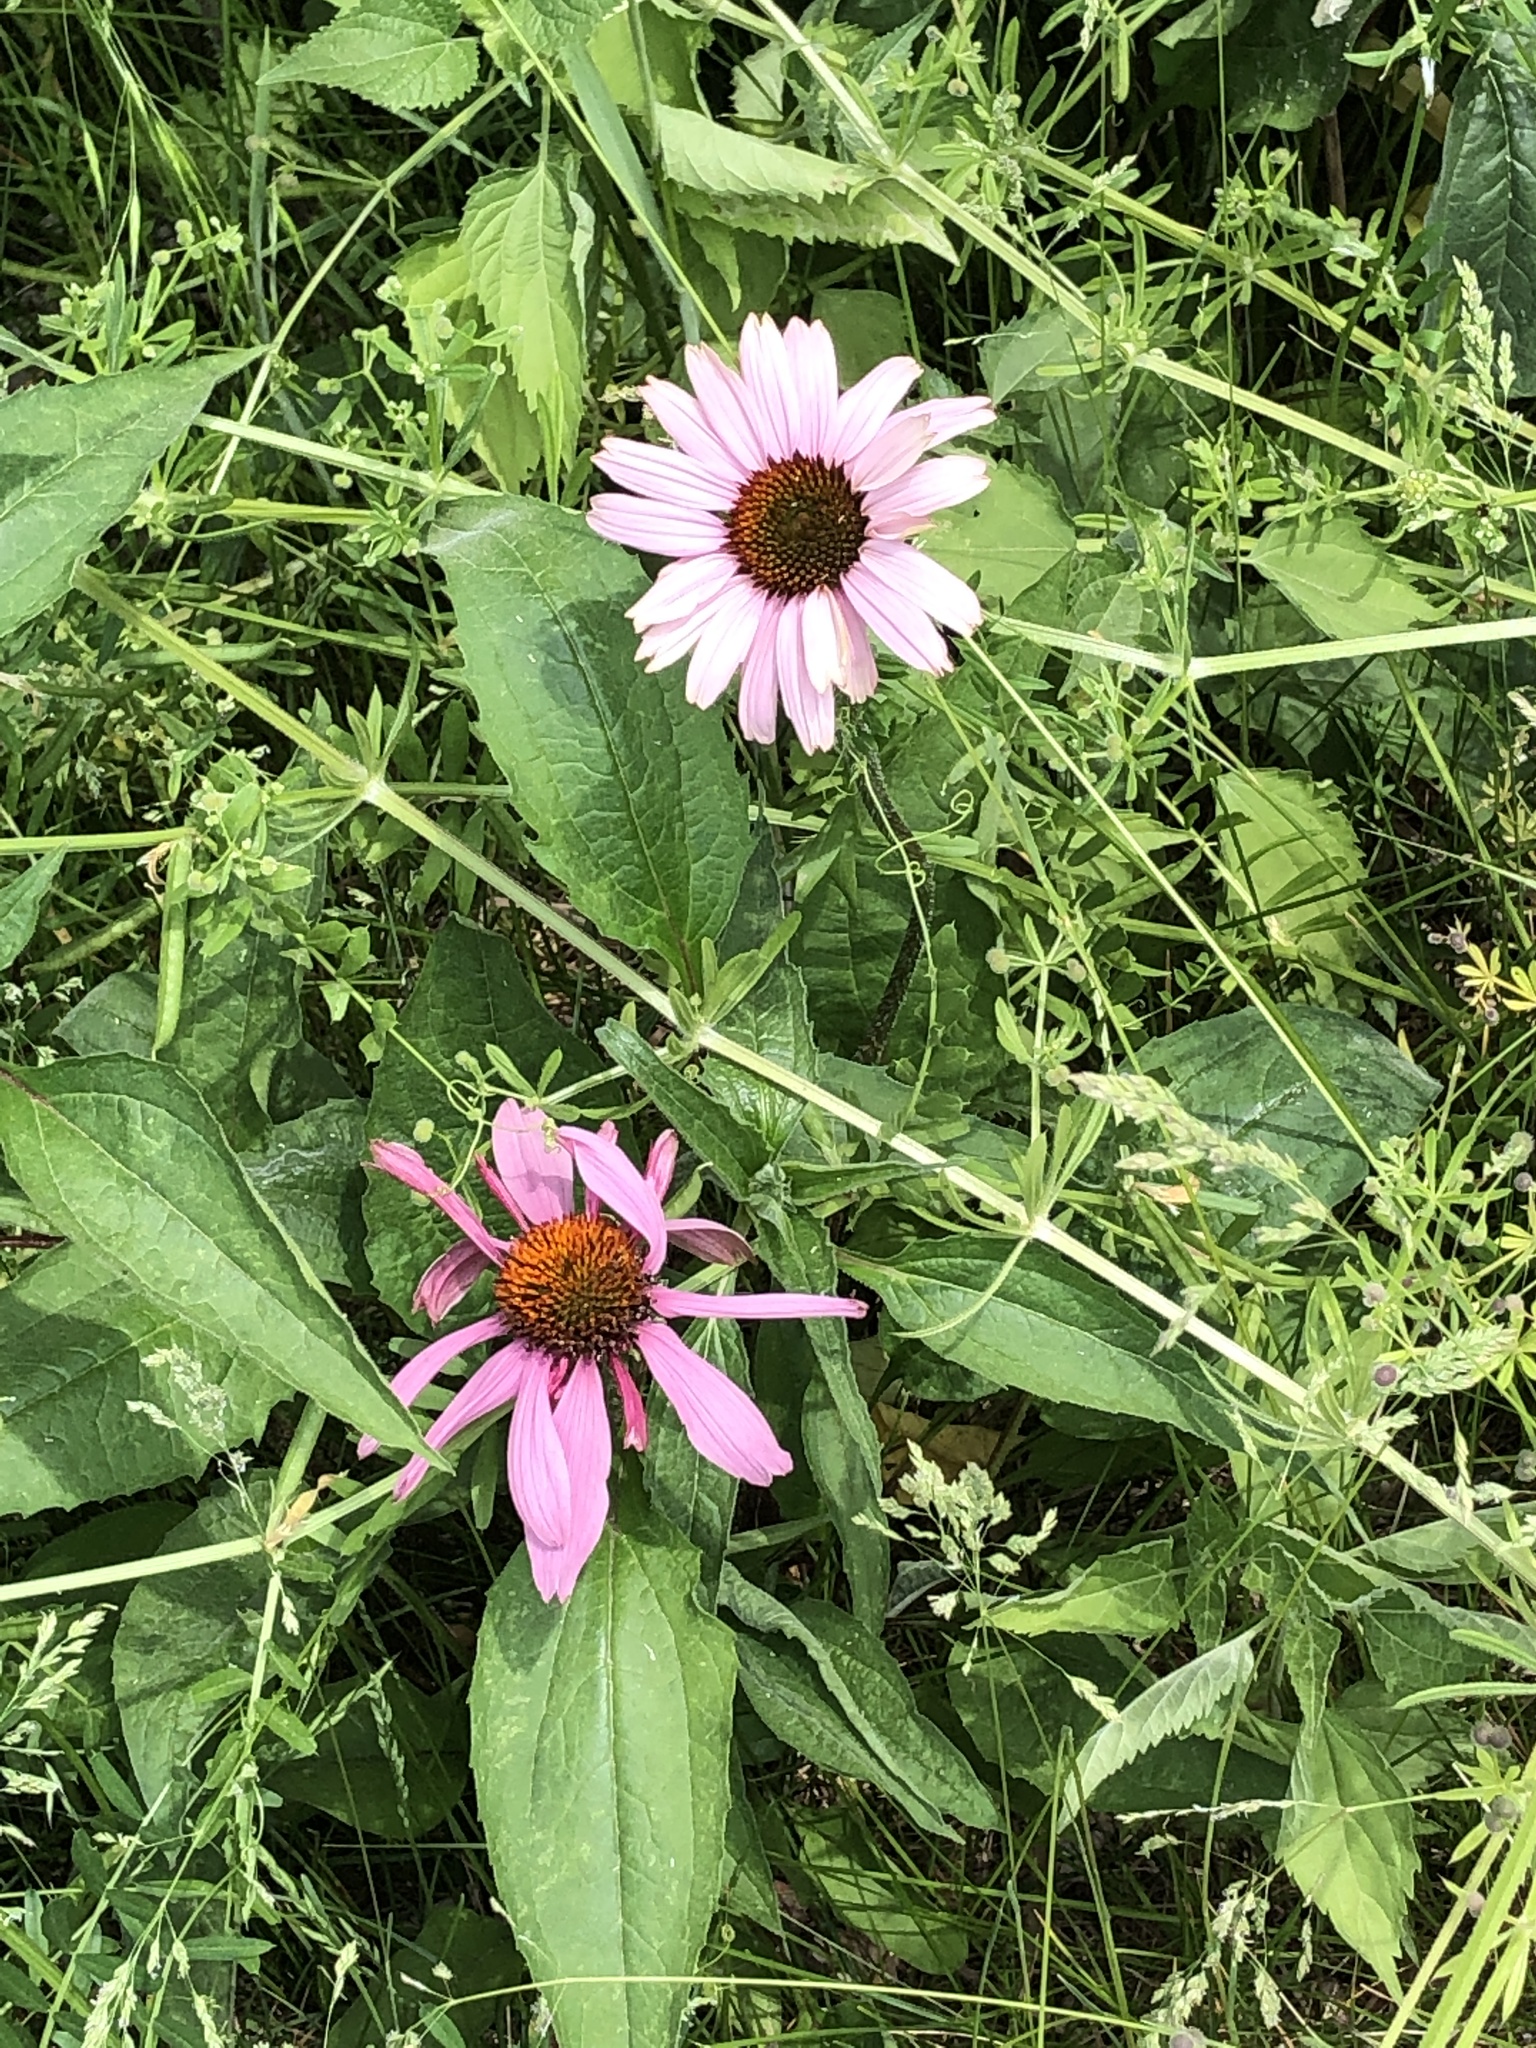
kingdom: Plantae
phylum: Tracheophyta
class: Magnoliopsida
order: Asterales
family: Asteraceae
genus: Echinacea
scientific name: Echinacea purpurea
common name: Broad-leaved purple coneflower
